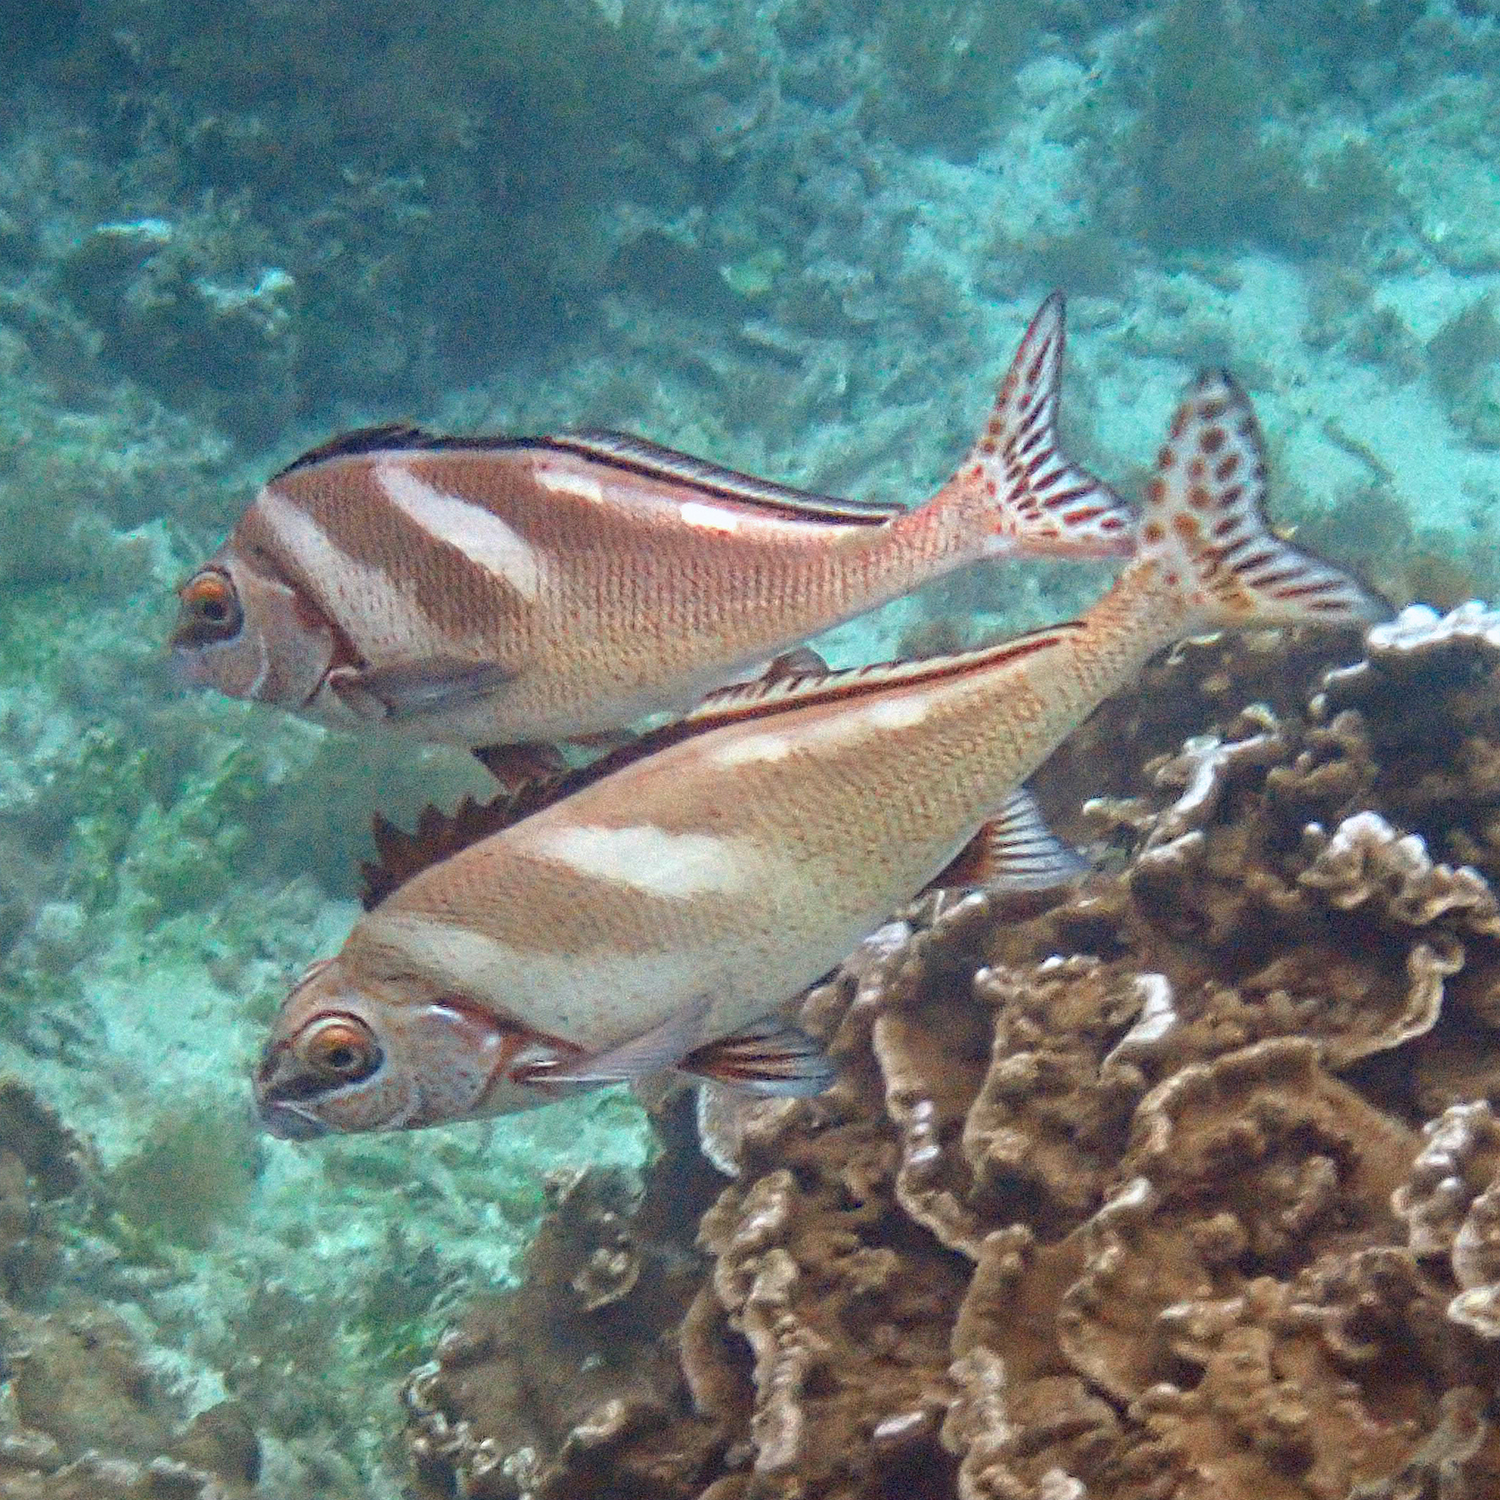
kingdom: Animalia
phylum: Chordata
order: Perciformes
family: Latridae
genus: Morwong
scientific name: Morwong ephippium
